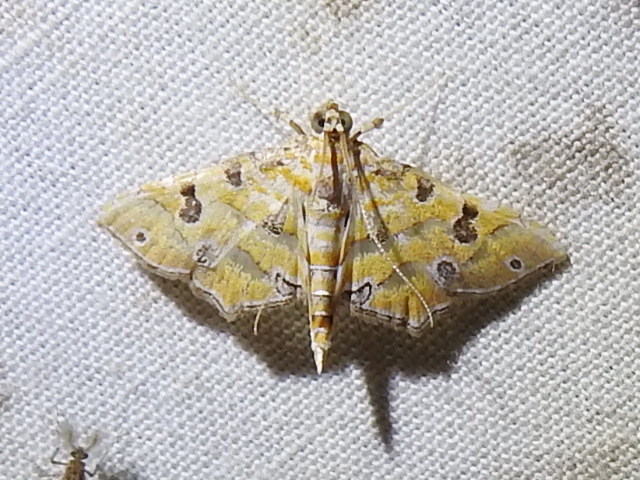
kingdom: Animalia
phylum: Arthropoda
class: Insecta
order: Lepidoptera
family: Crambidae
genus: Ommatospila
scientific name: Ommatospila narcaeusalis
